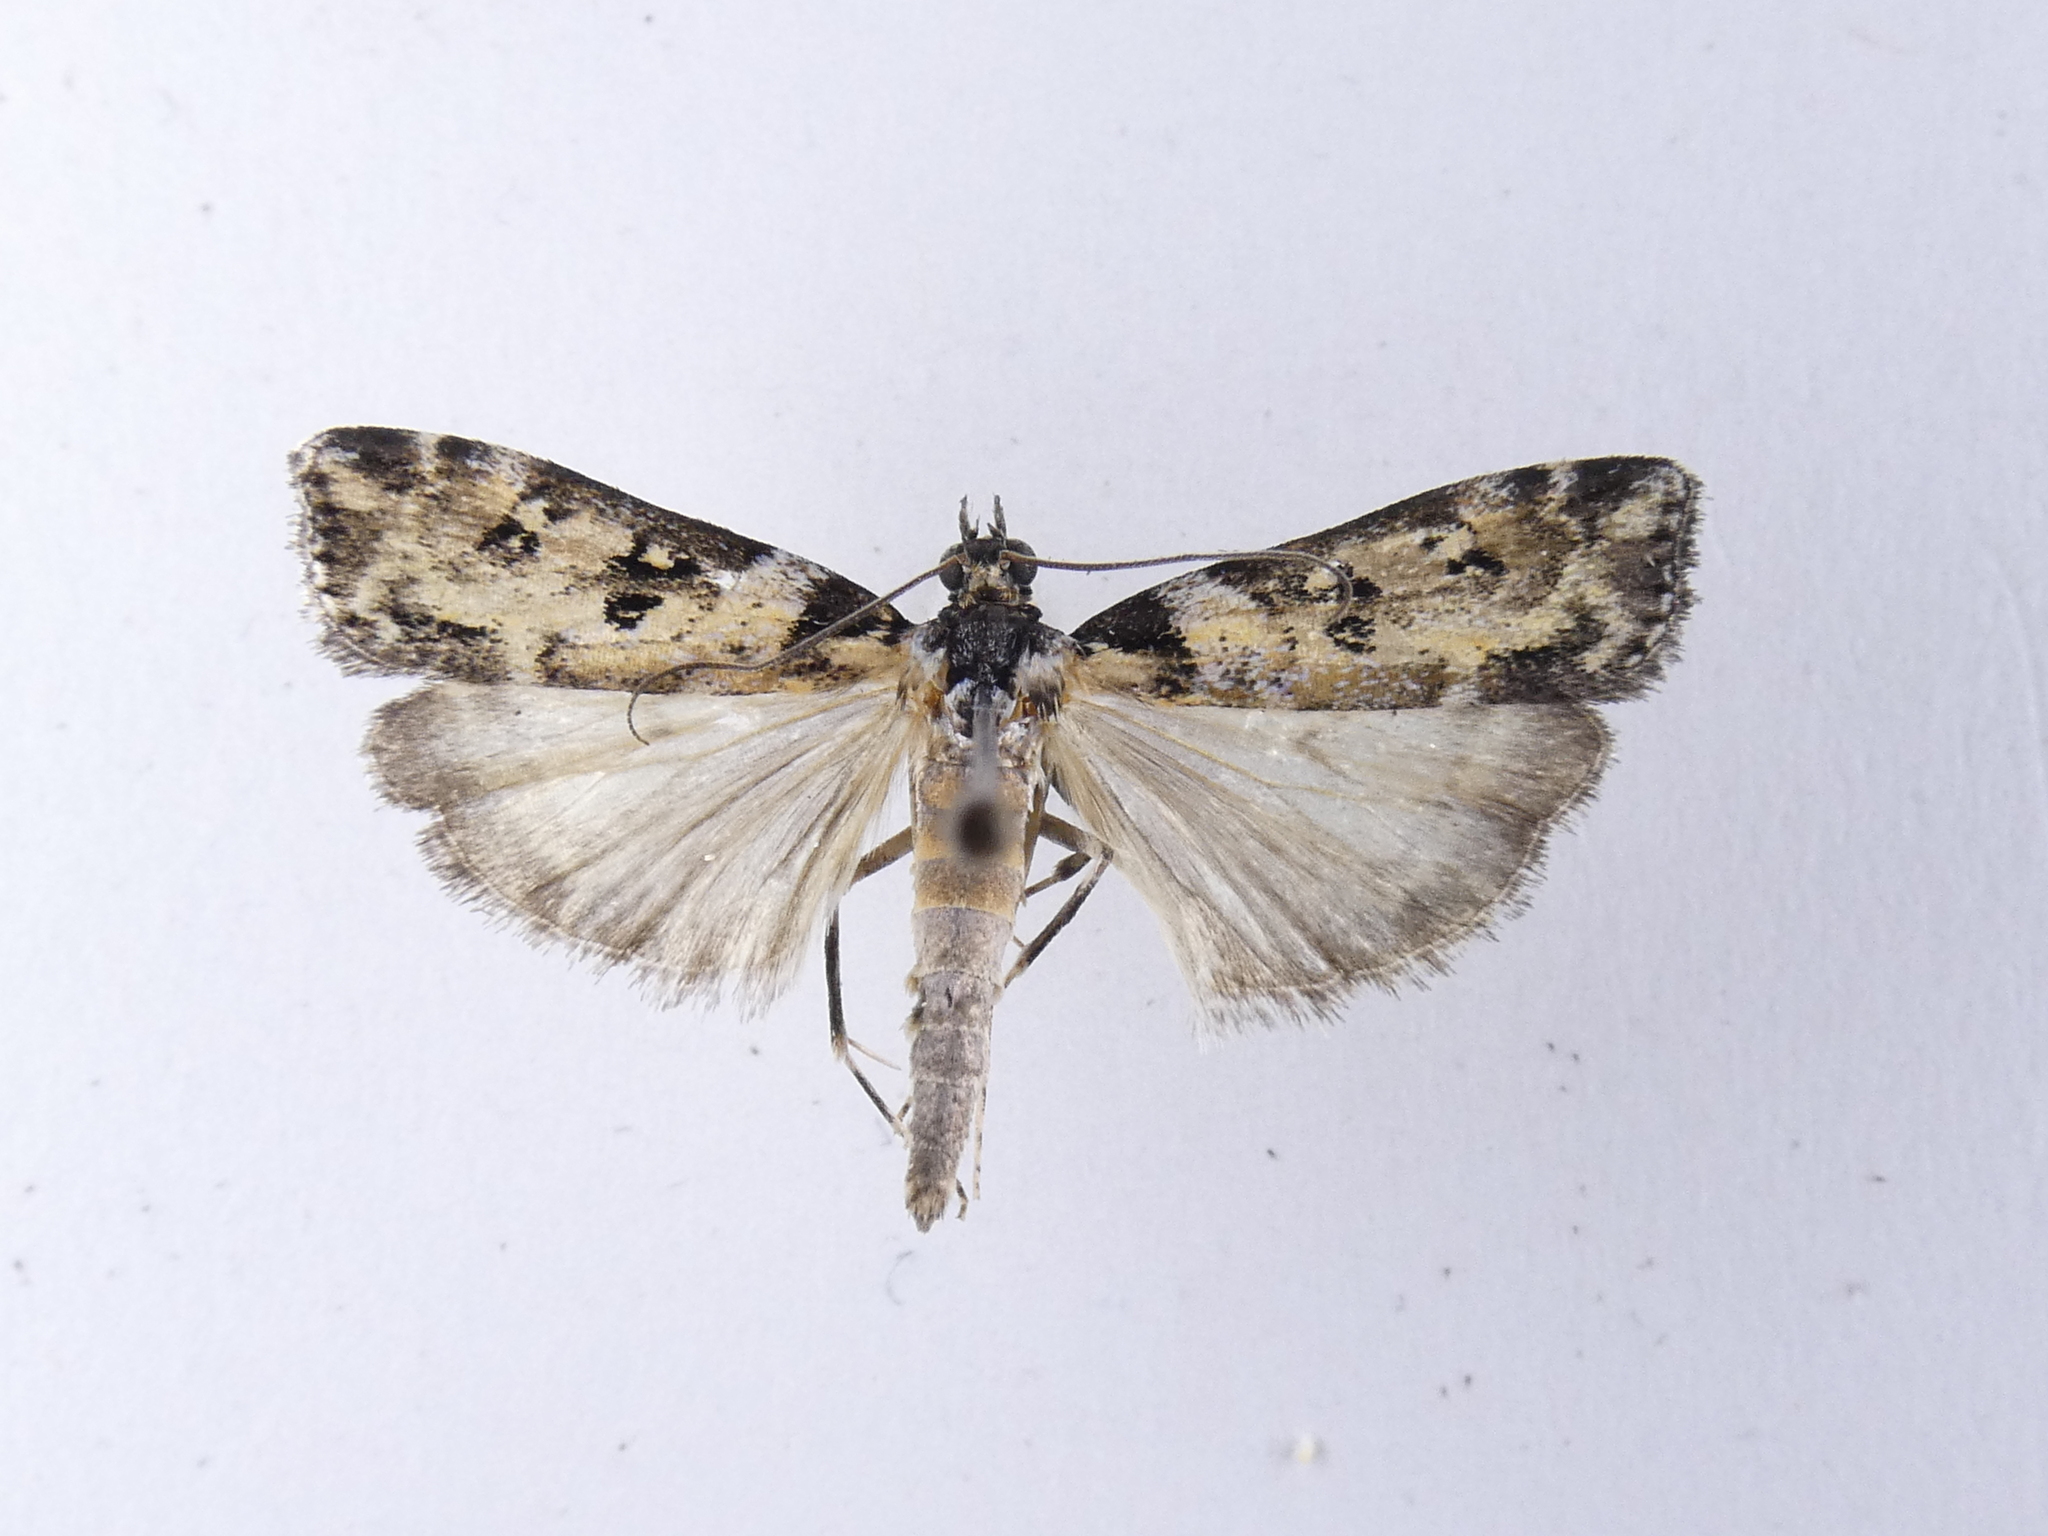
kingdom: Animalia
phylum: Arthropoda
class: Insecta
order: Lepidoptera
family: Crambidae
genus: Eudonia
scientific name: Eudonia diphtheralis
